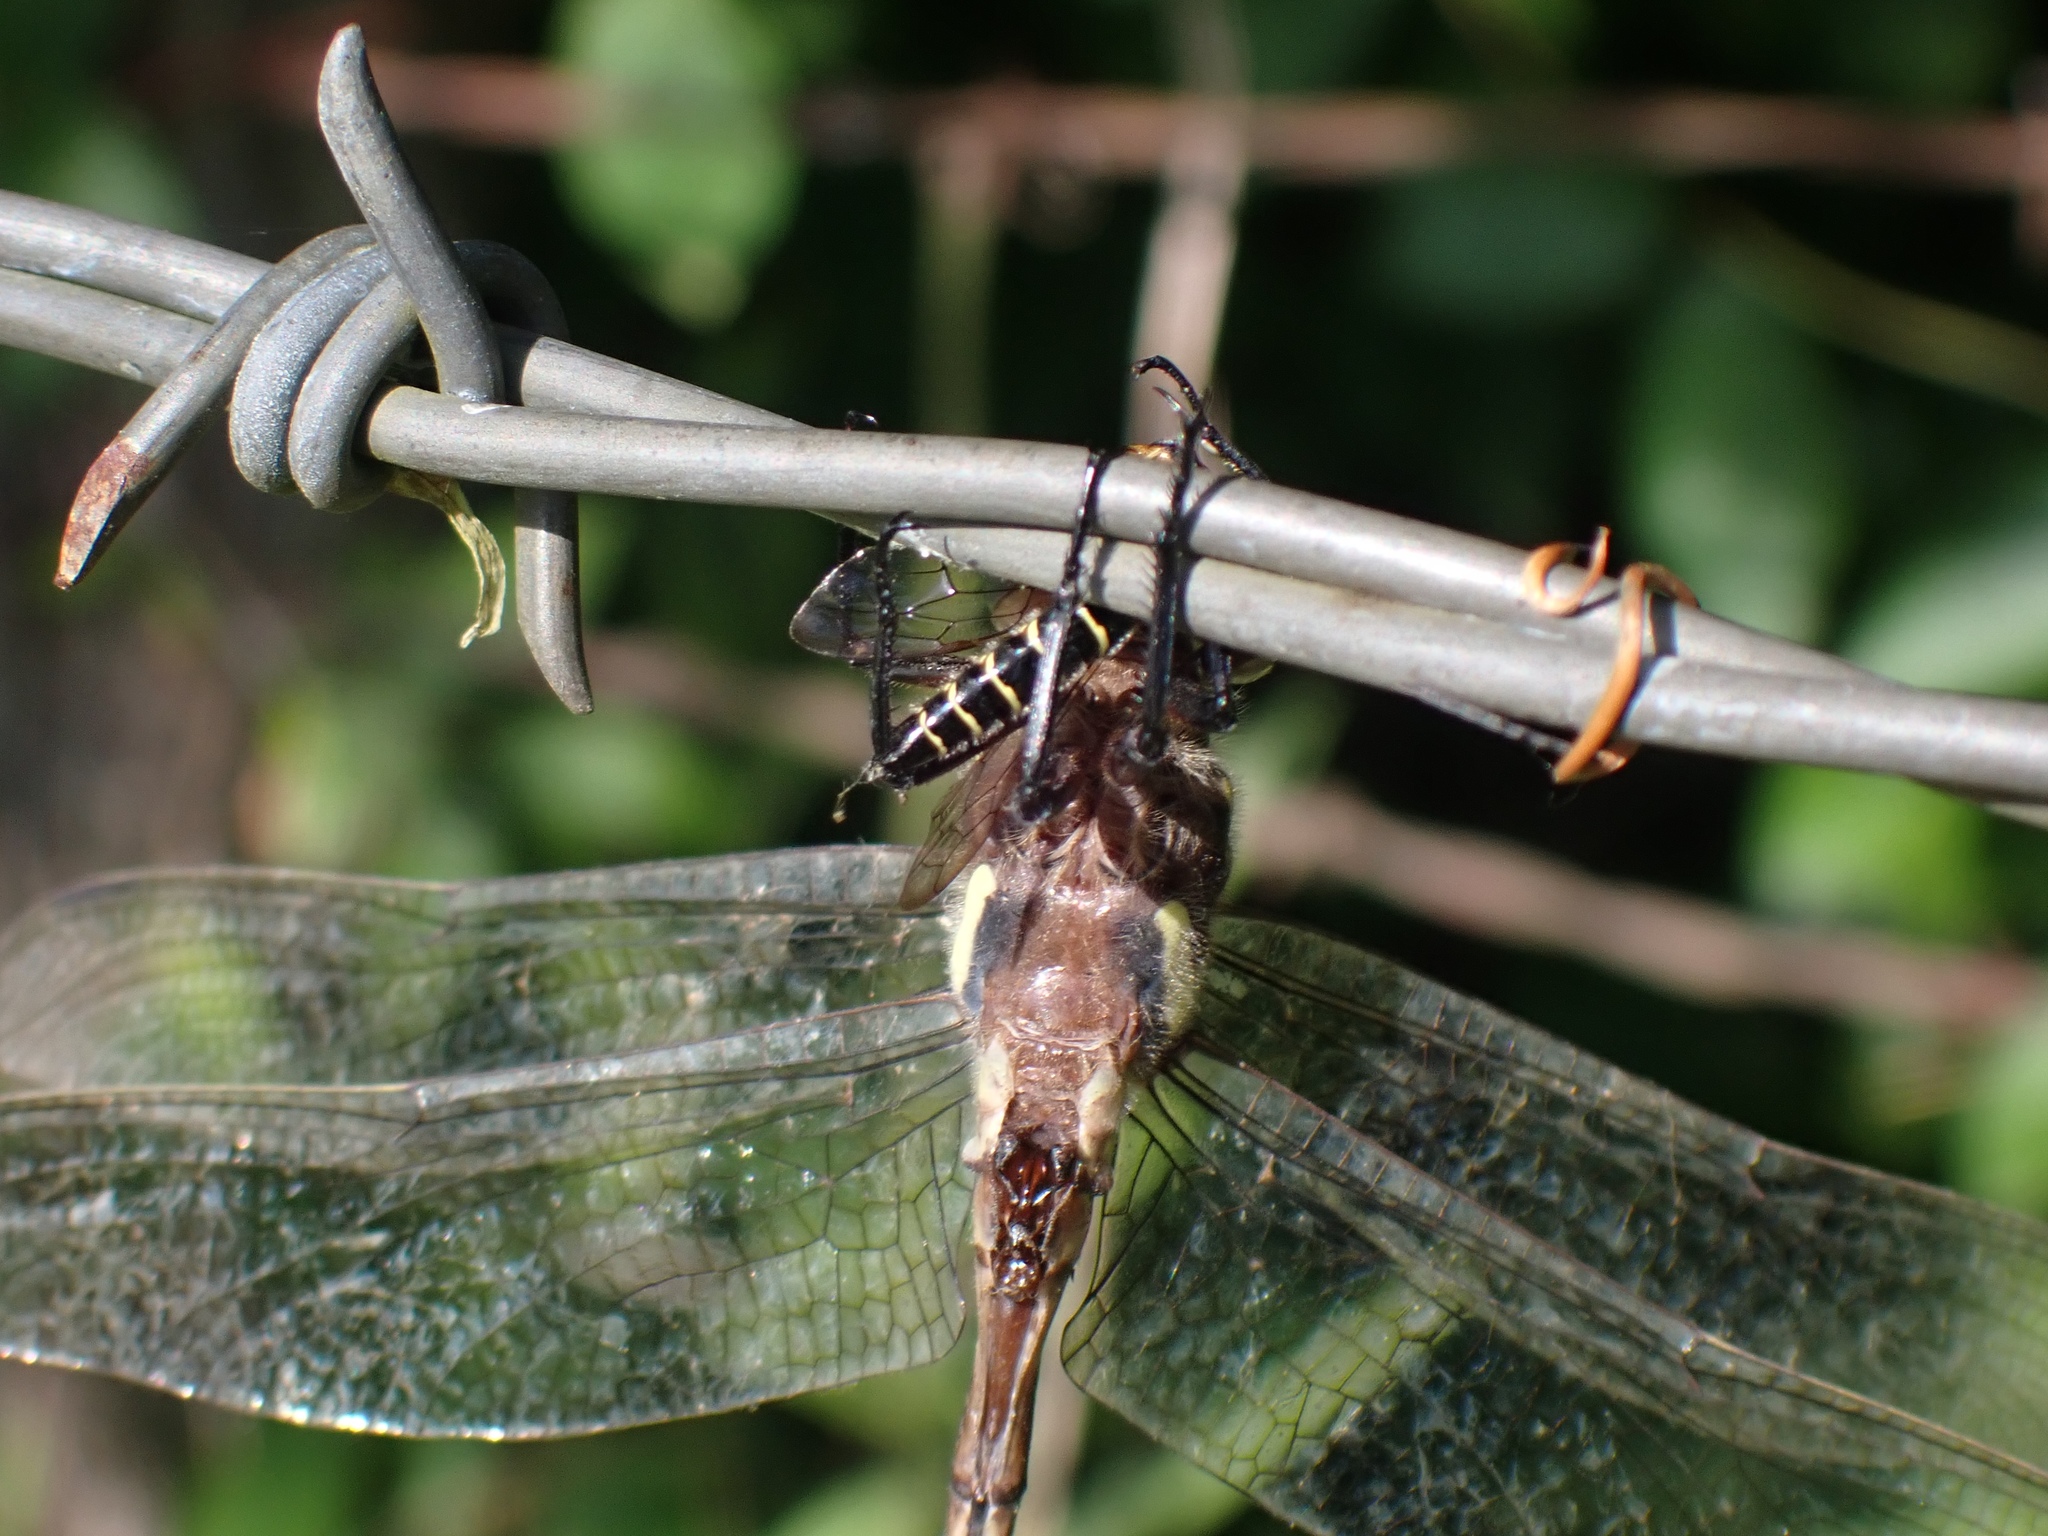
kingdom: Animalia
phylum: Arthropoda
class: Insecta
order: Odonata
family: Cordulegastridae
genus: Cordulegaster
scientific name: Cordulegaster obliqua
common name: Arrowhead spiketail
